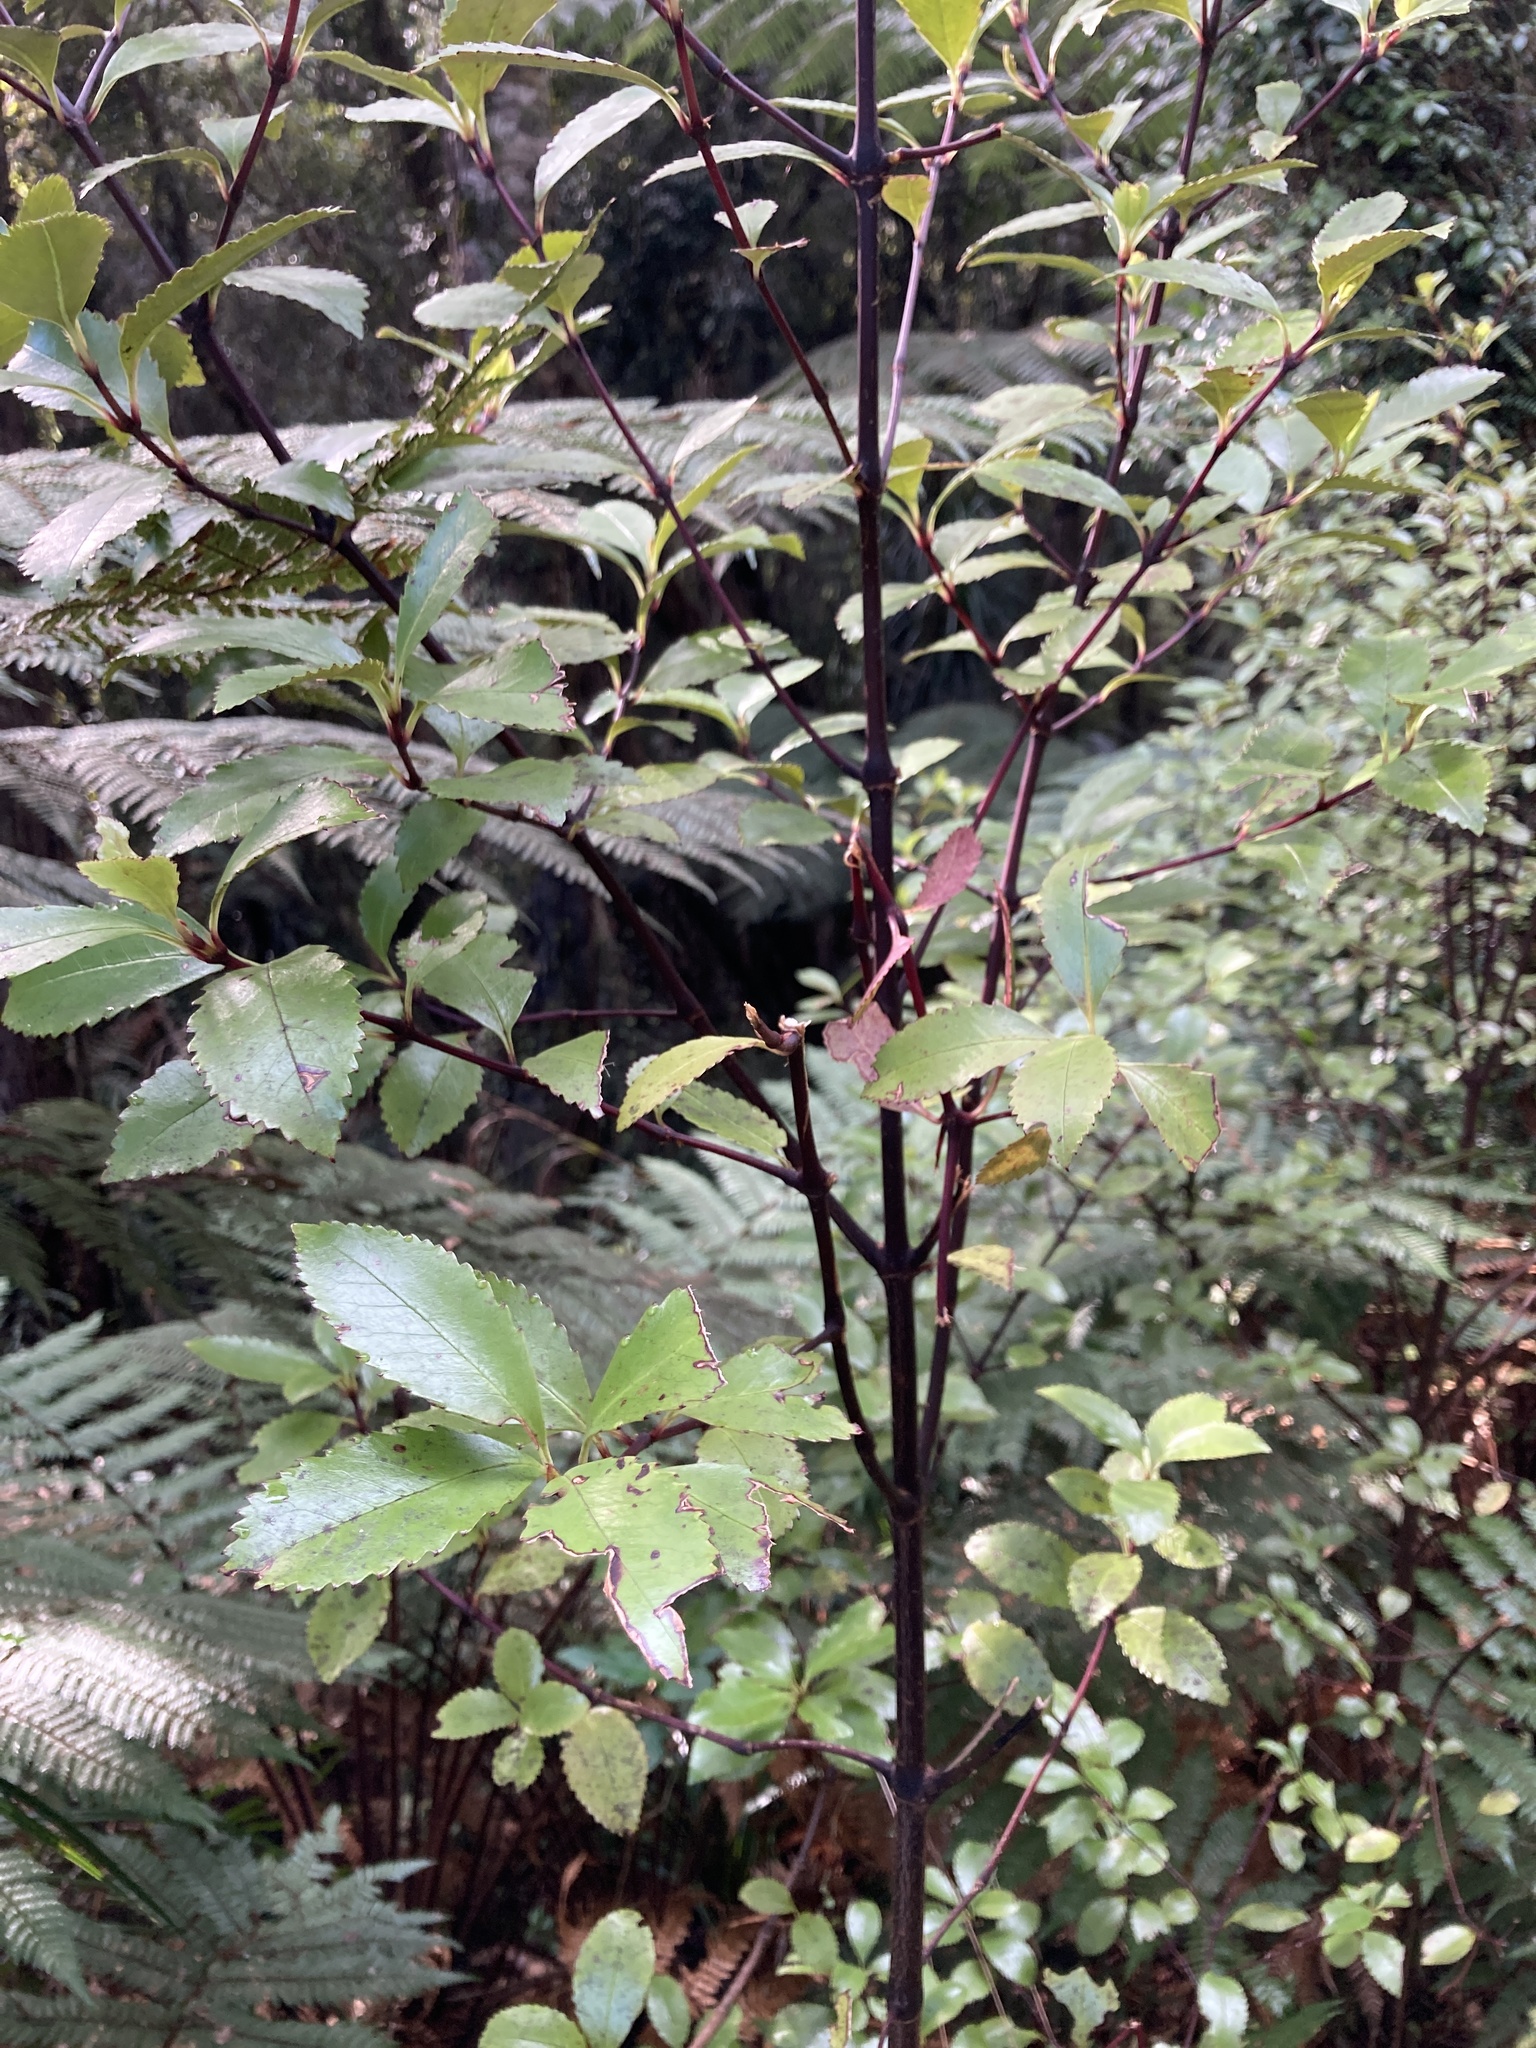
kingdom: Plantae
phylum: Tracheophyta
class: Magnoliopsida
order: Chloranthales
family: Chloranthaceae
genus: Ascarina
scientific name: Ascarina lucida
